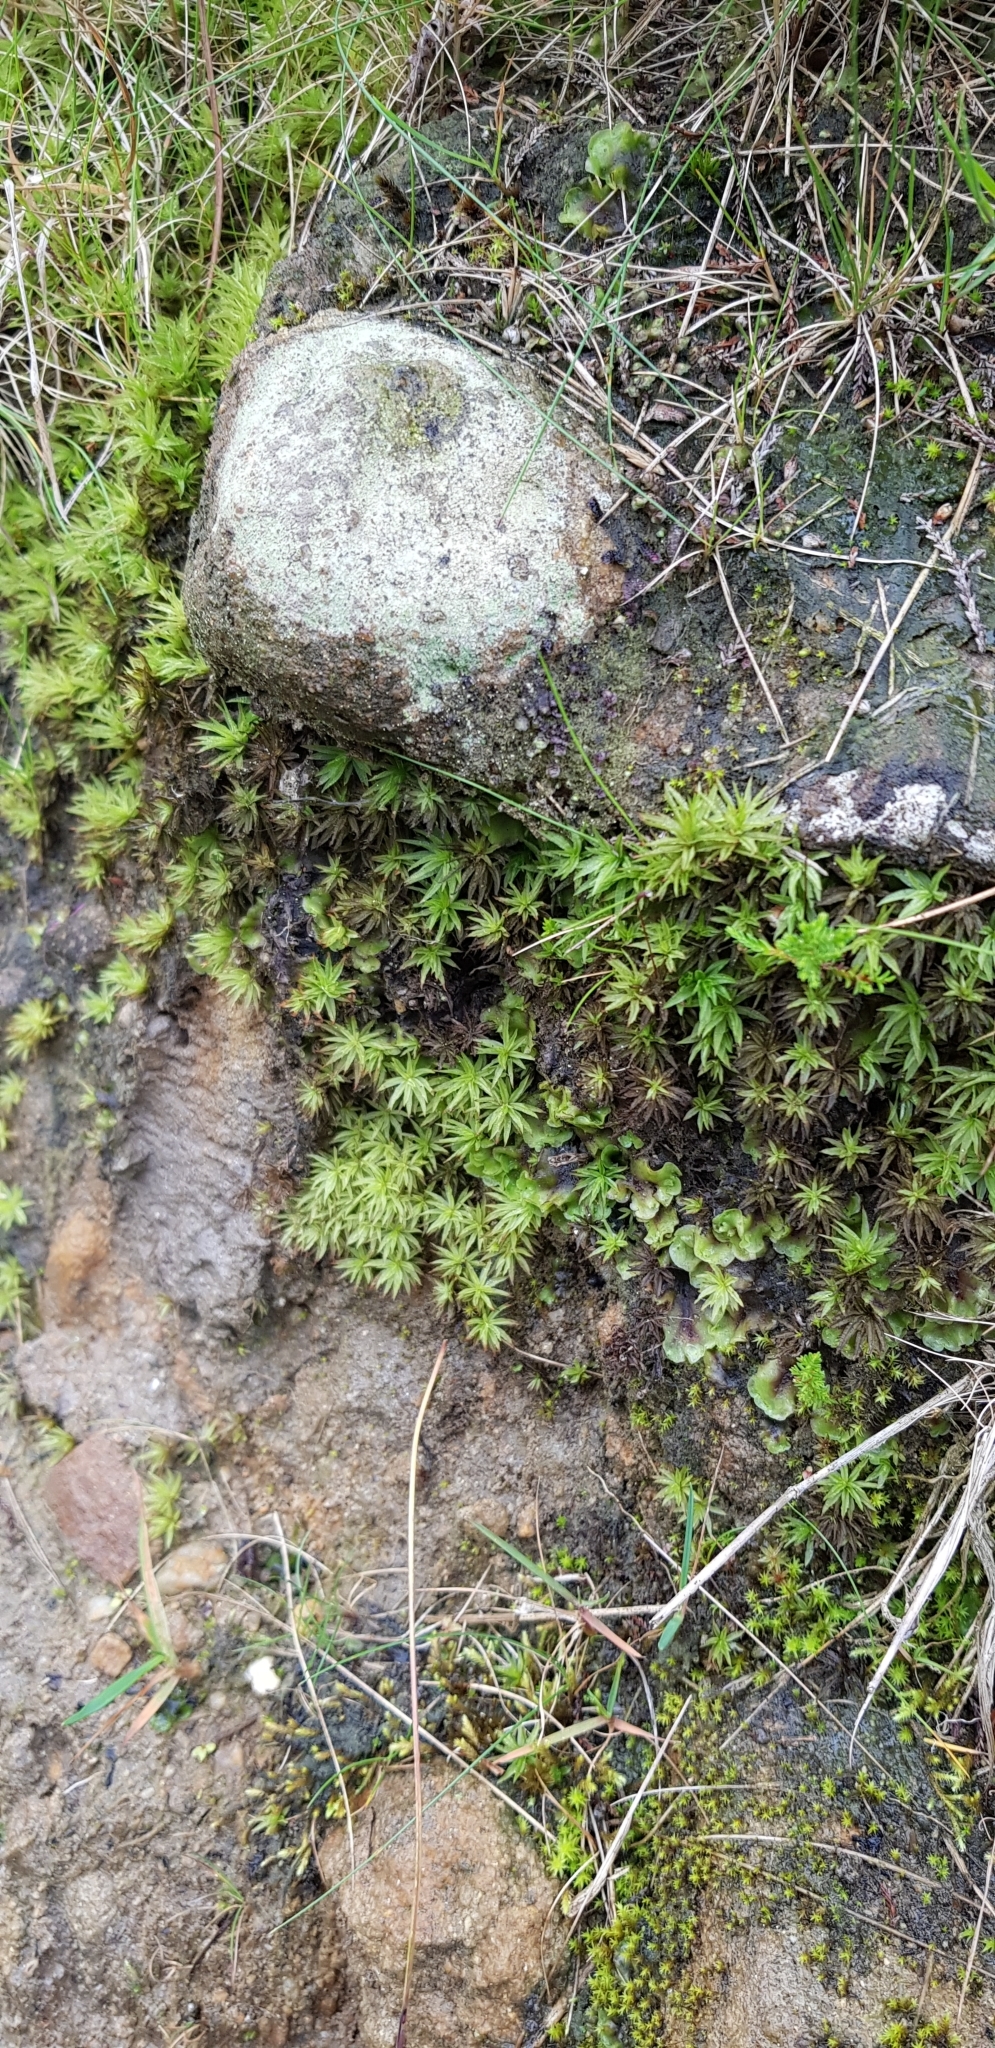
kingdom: Plantae
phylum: Bryophyta
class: Polytrichopsida
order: Polytrichales
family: Polytrichaceae
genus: Atrichum
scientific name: Atrichum undulatum
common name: Common smoothcap
